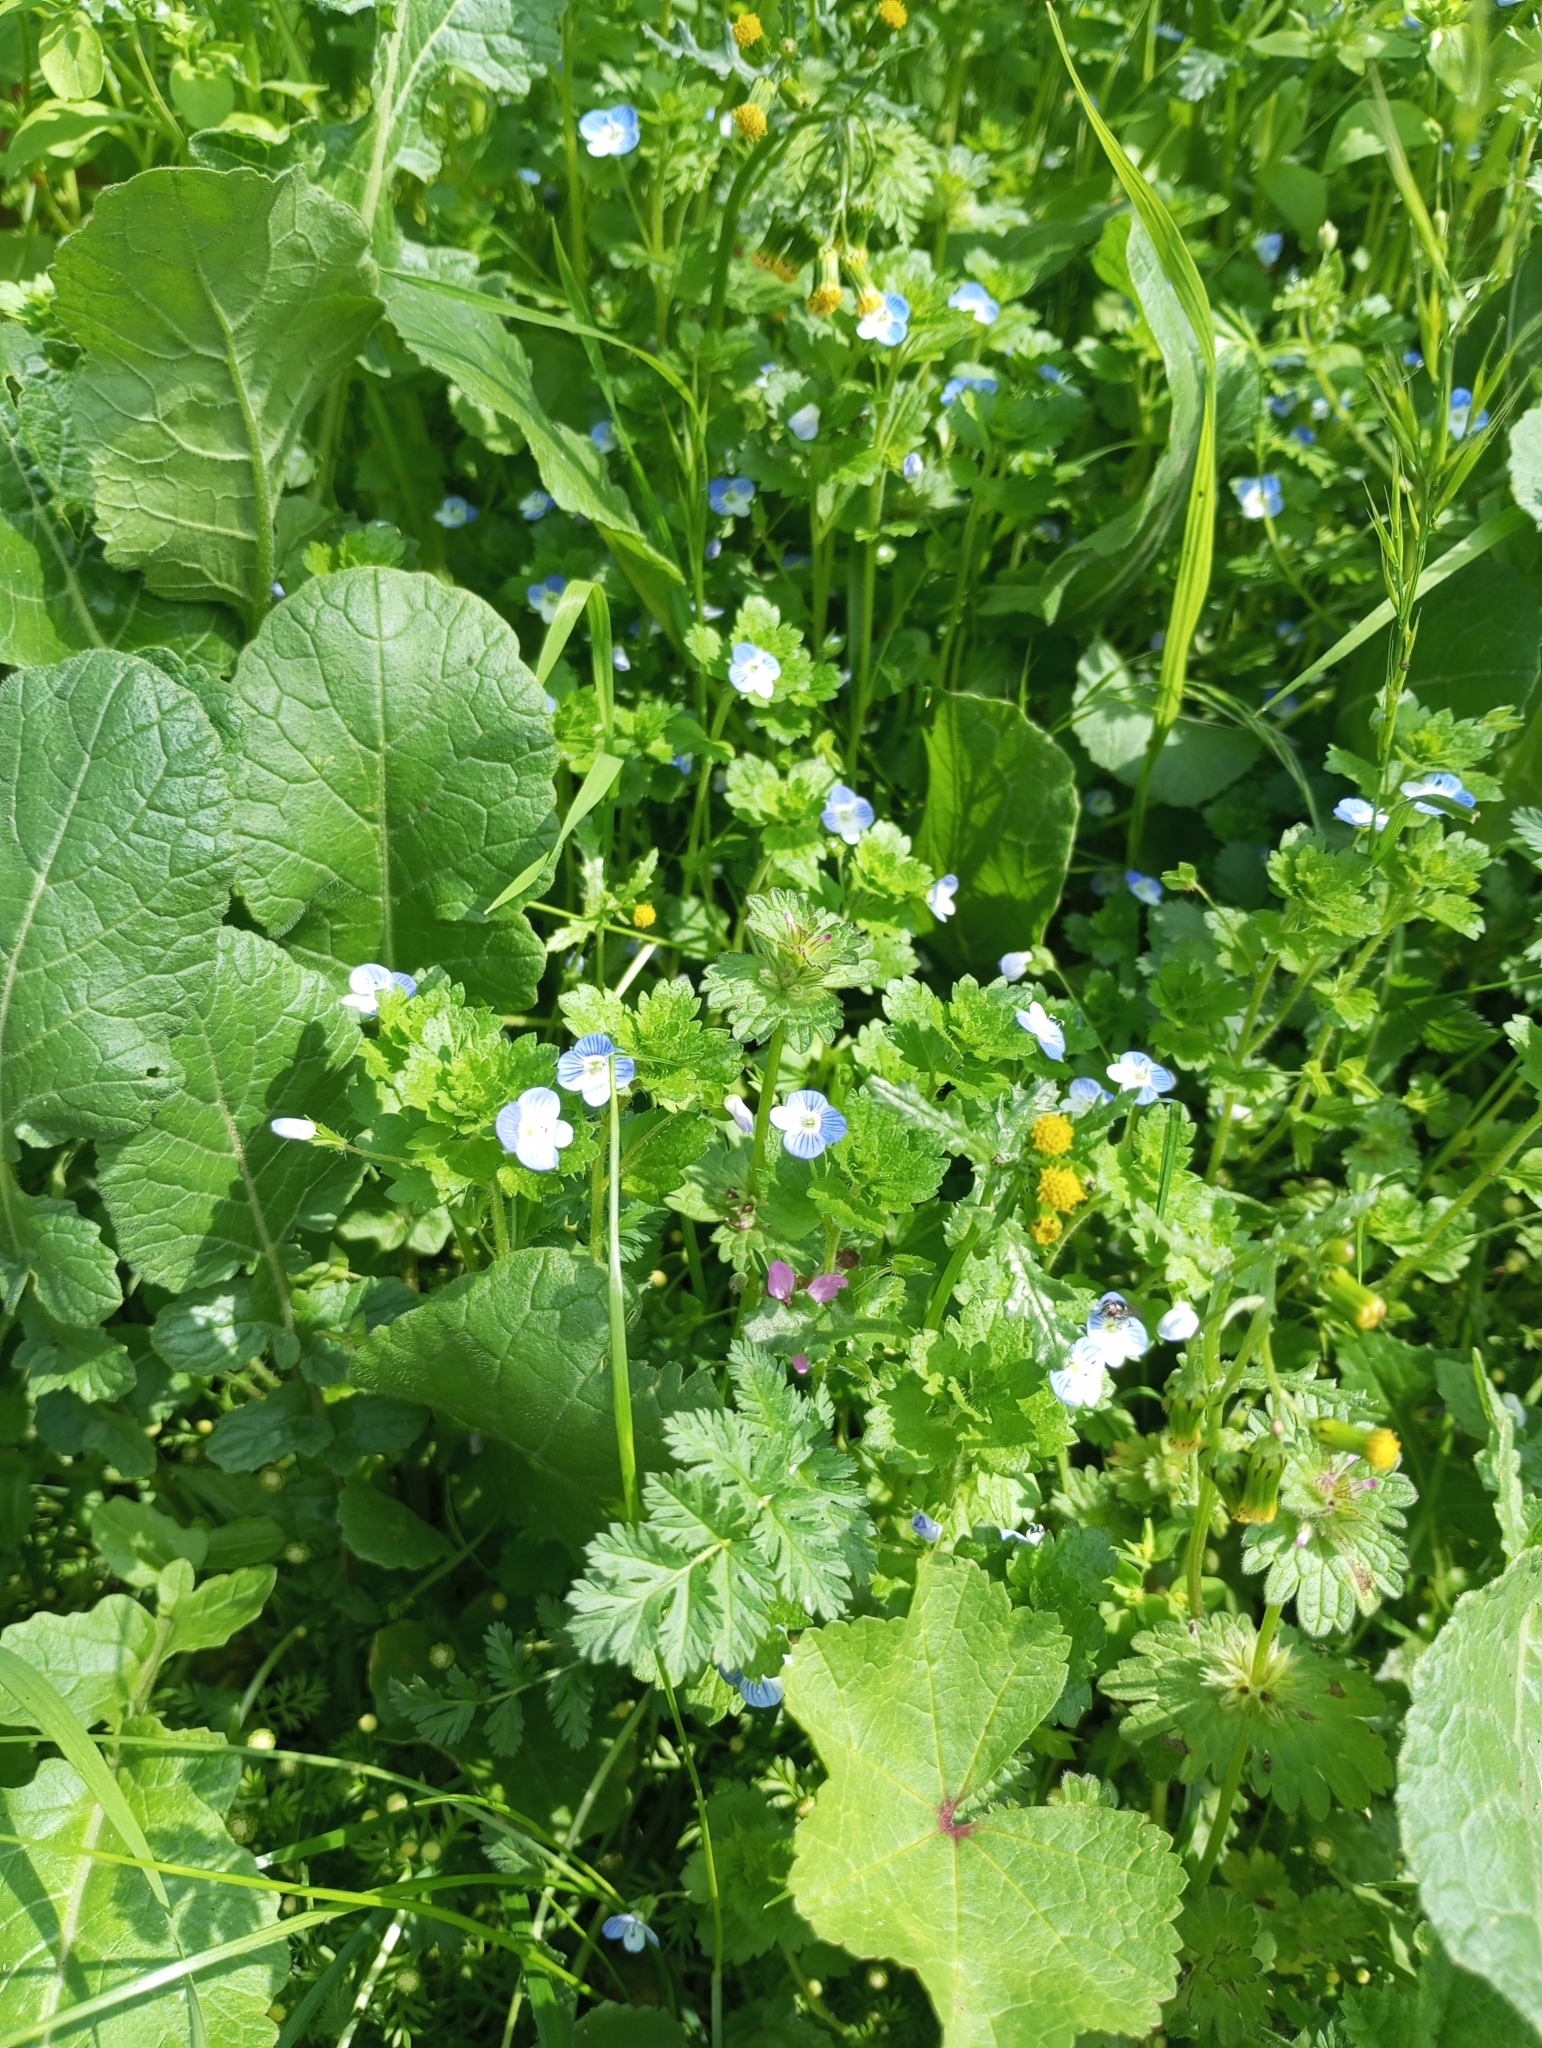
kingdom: Plantae
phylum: Tracheophyta
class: Magnoliopsida
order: Lamiales
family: Plantaginaceae
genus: Veronica
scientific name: Veronica persica
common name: Common field-speedwell
